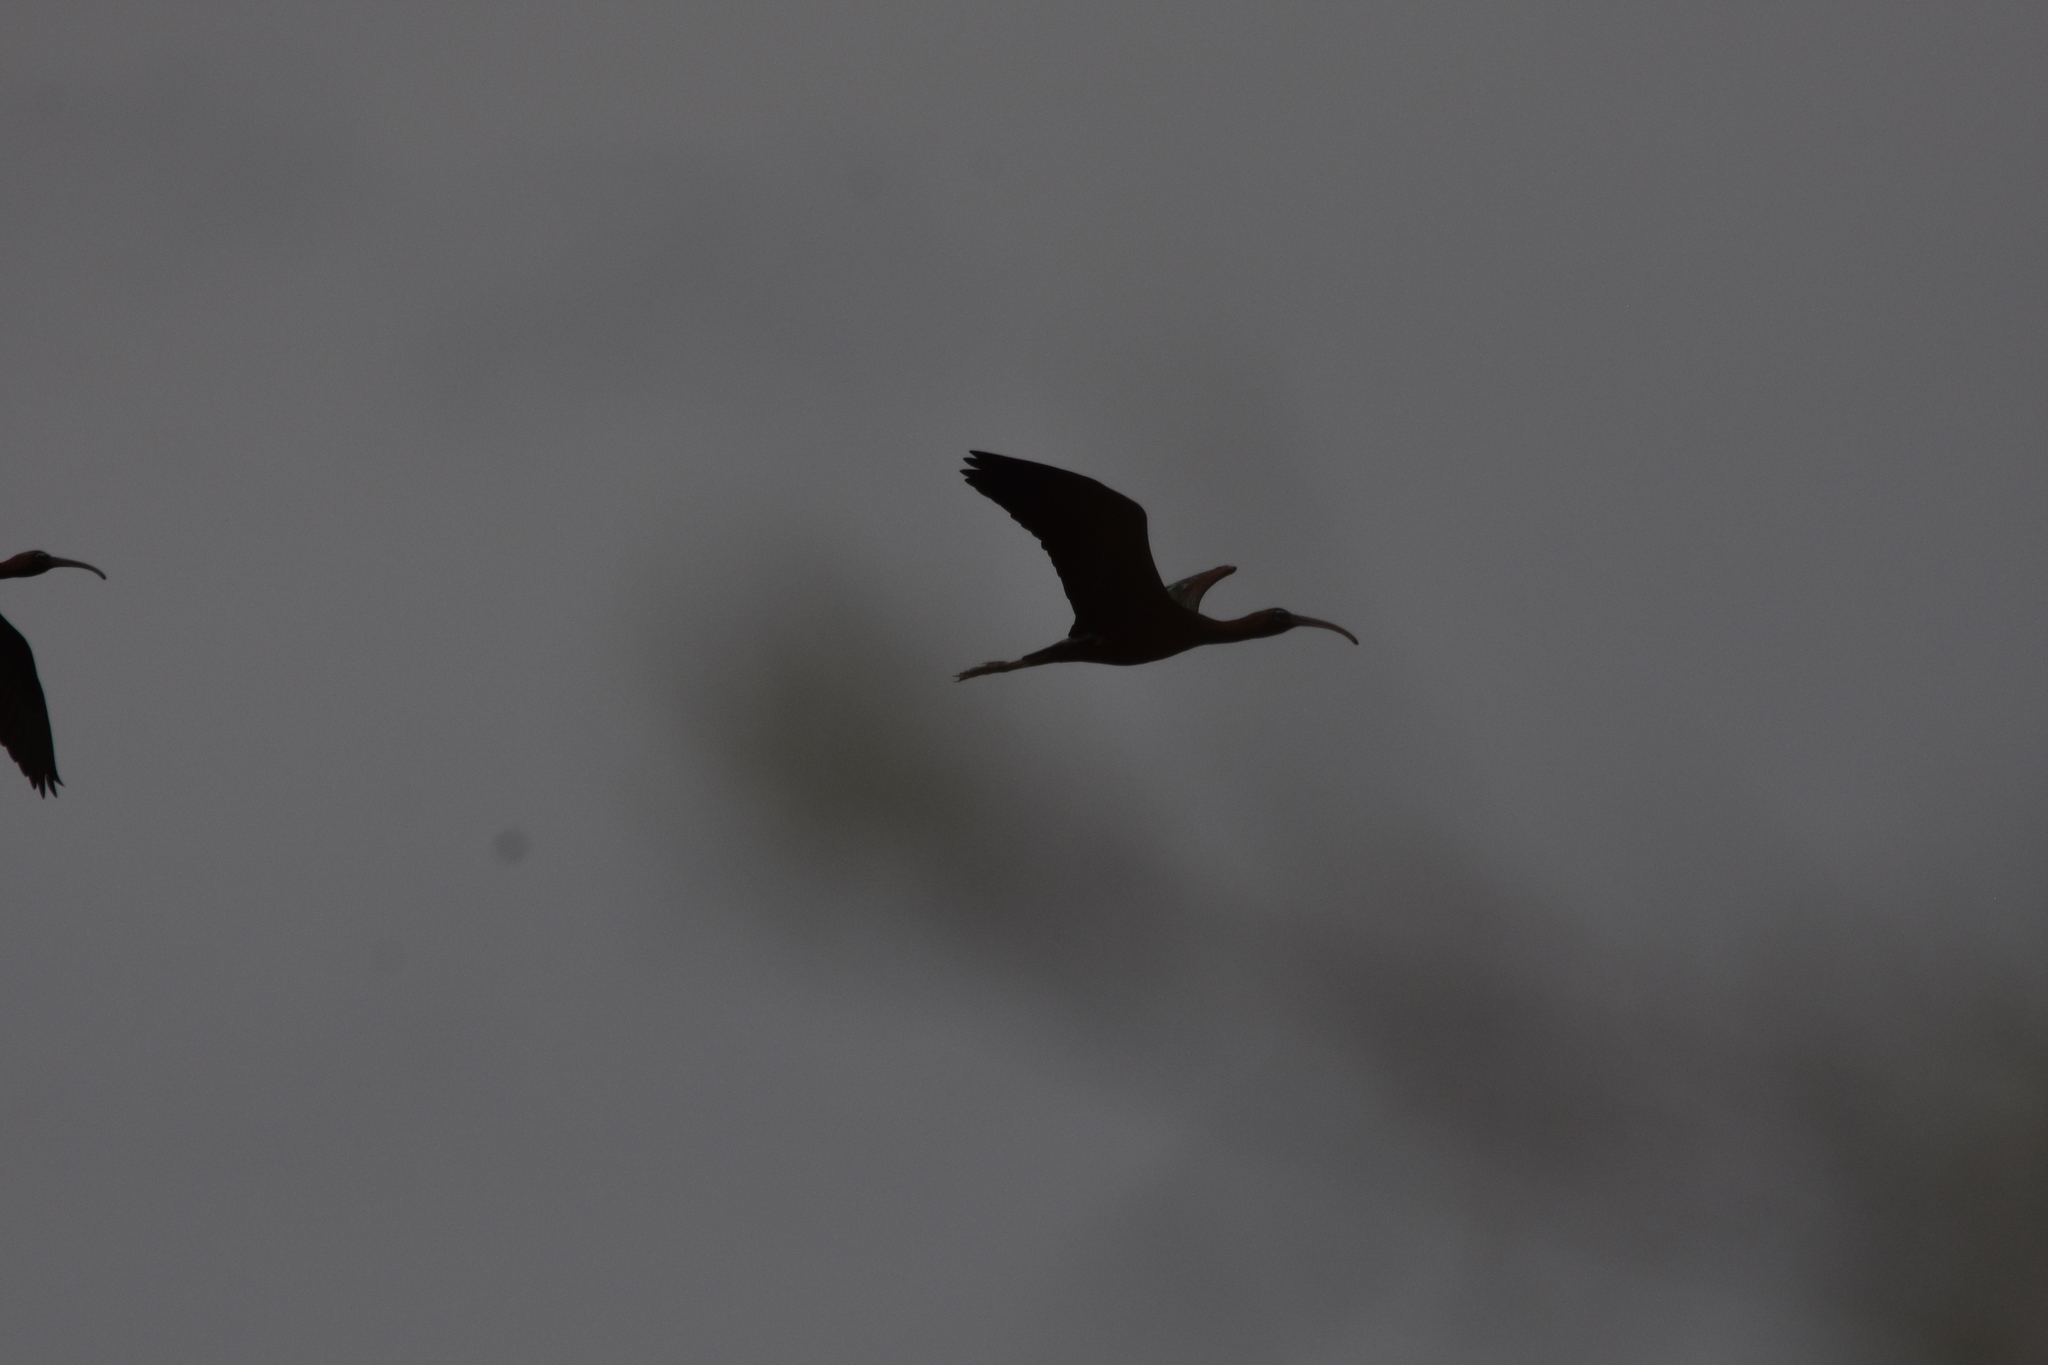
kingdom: Animalia
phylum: Chordata
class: Aves
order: Pelecaniformes
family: Threskiornithidae
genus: Plegadis
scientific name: Plegadis falcinellus
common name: Glossy ibis
